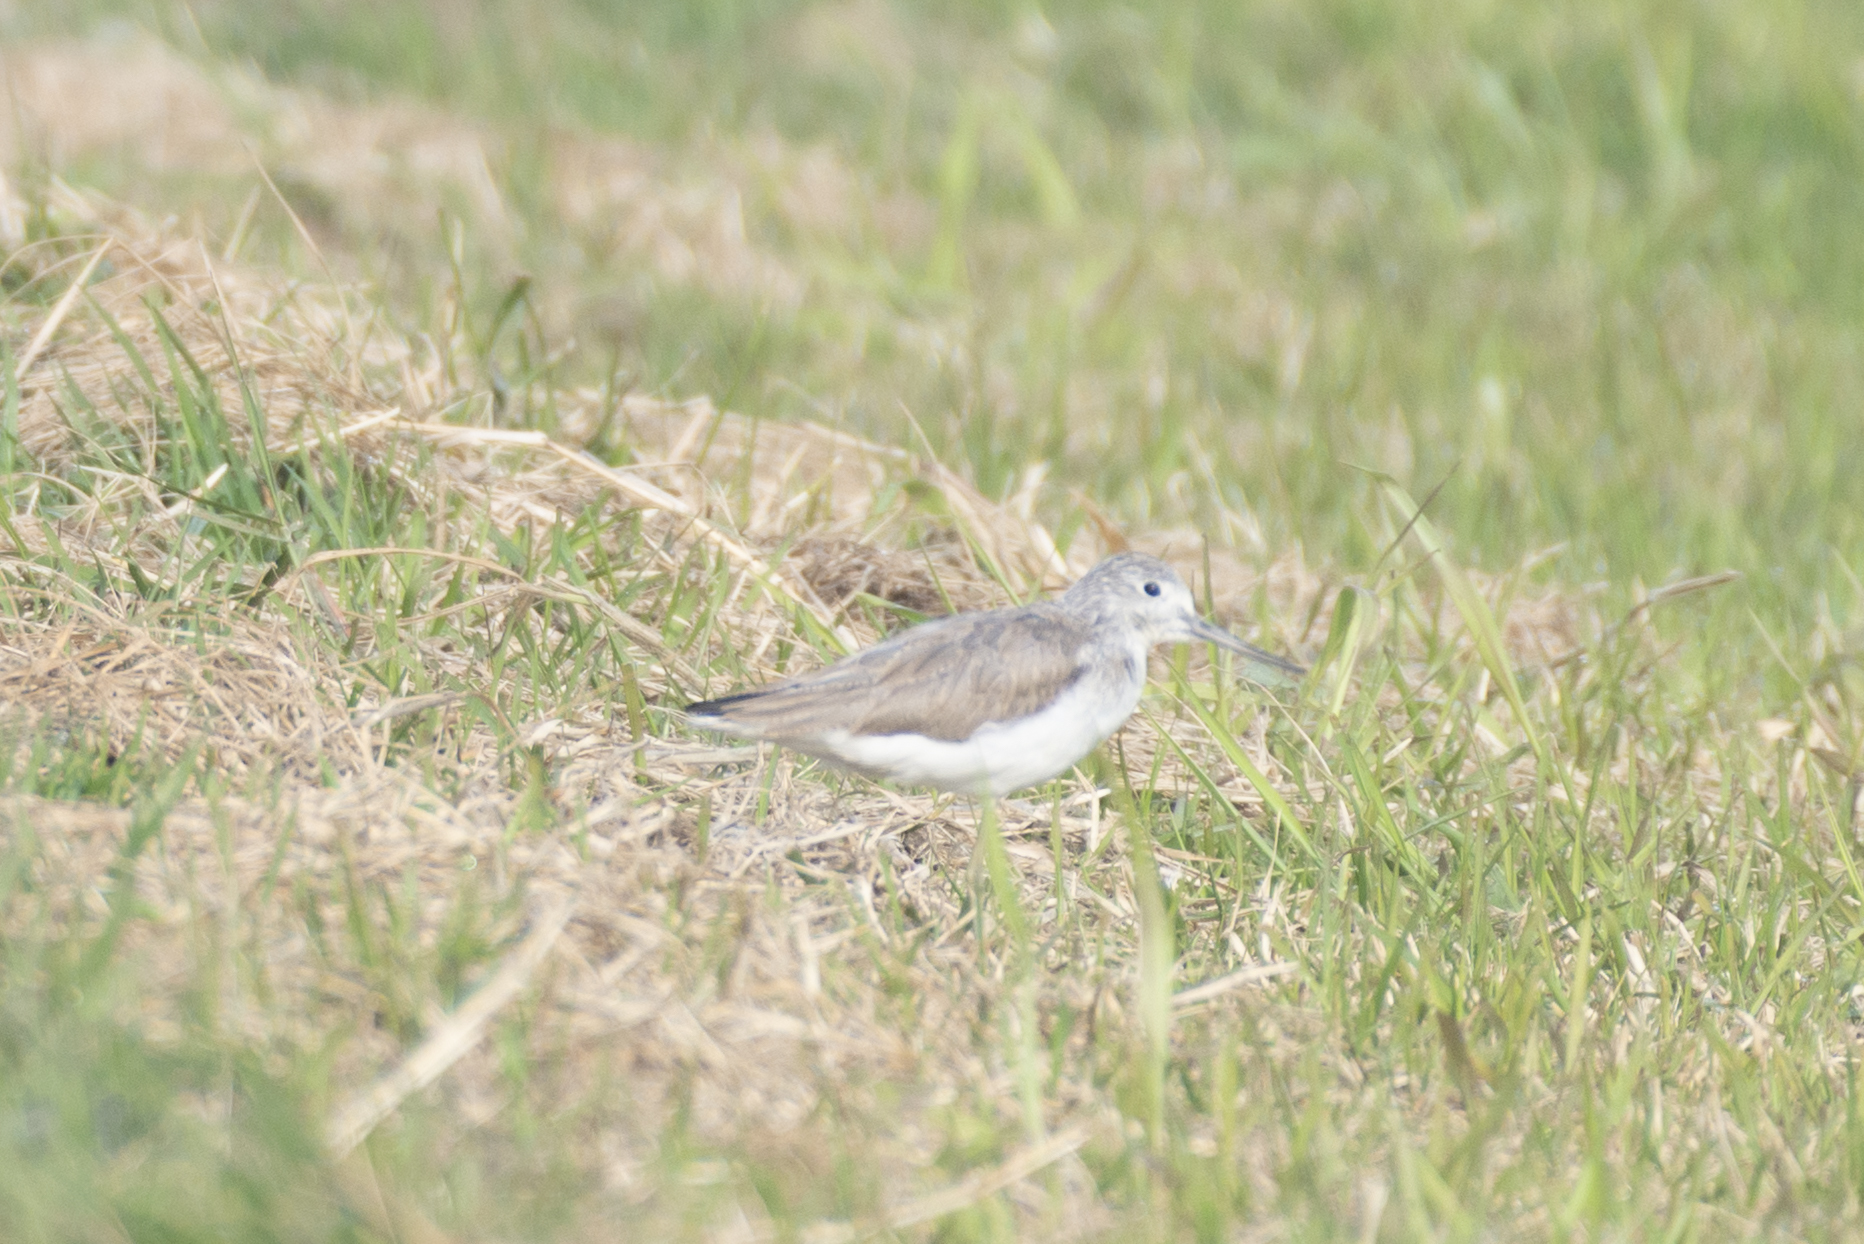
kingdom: Animalia
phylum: Chordata
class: Aves
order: Charadriiformes
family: Scolopacidae
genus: Tringa
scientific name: Tringa nebularia
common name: Common greenshank
